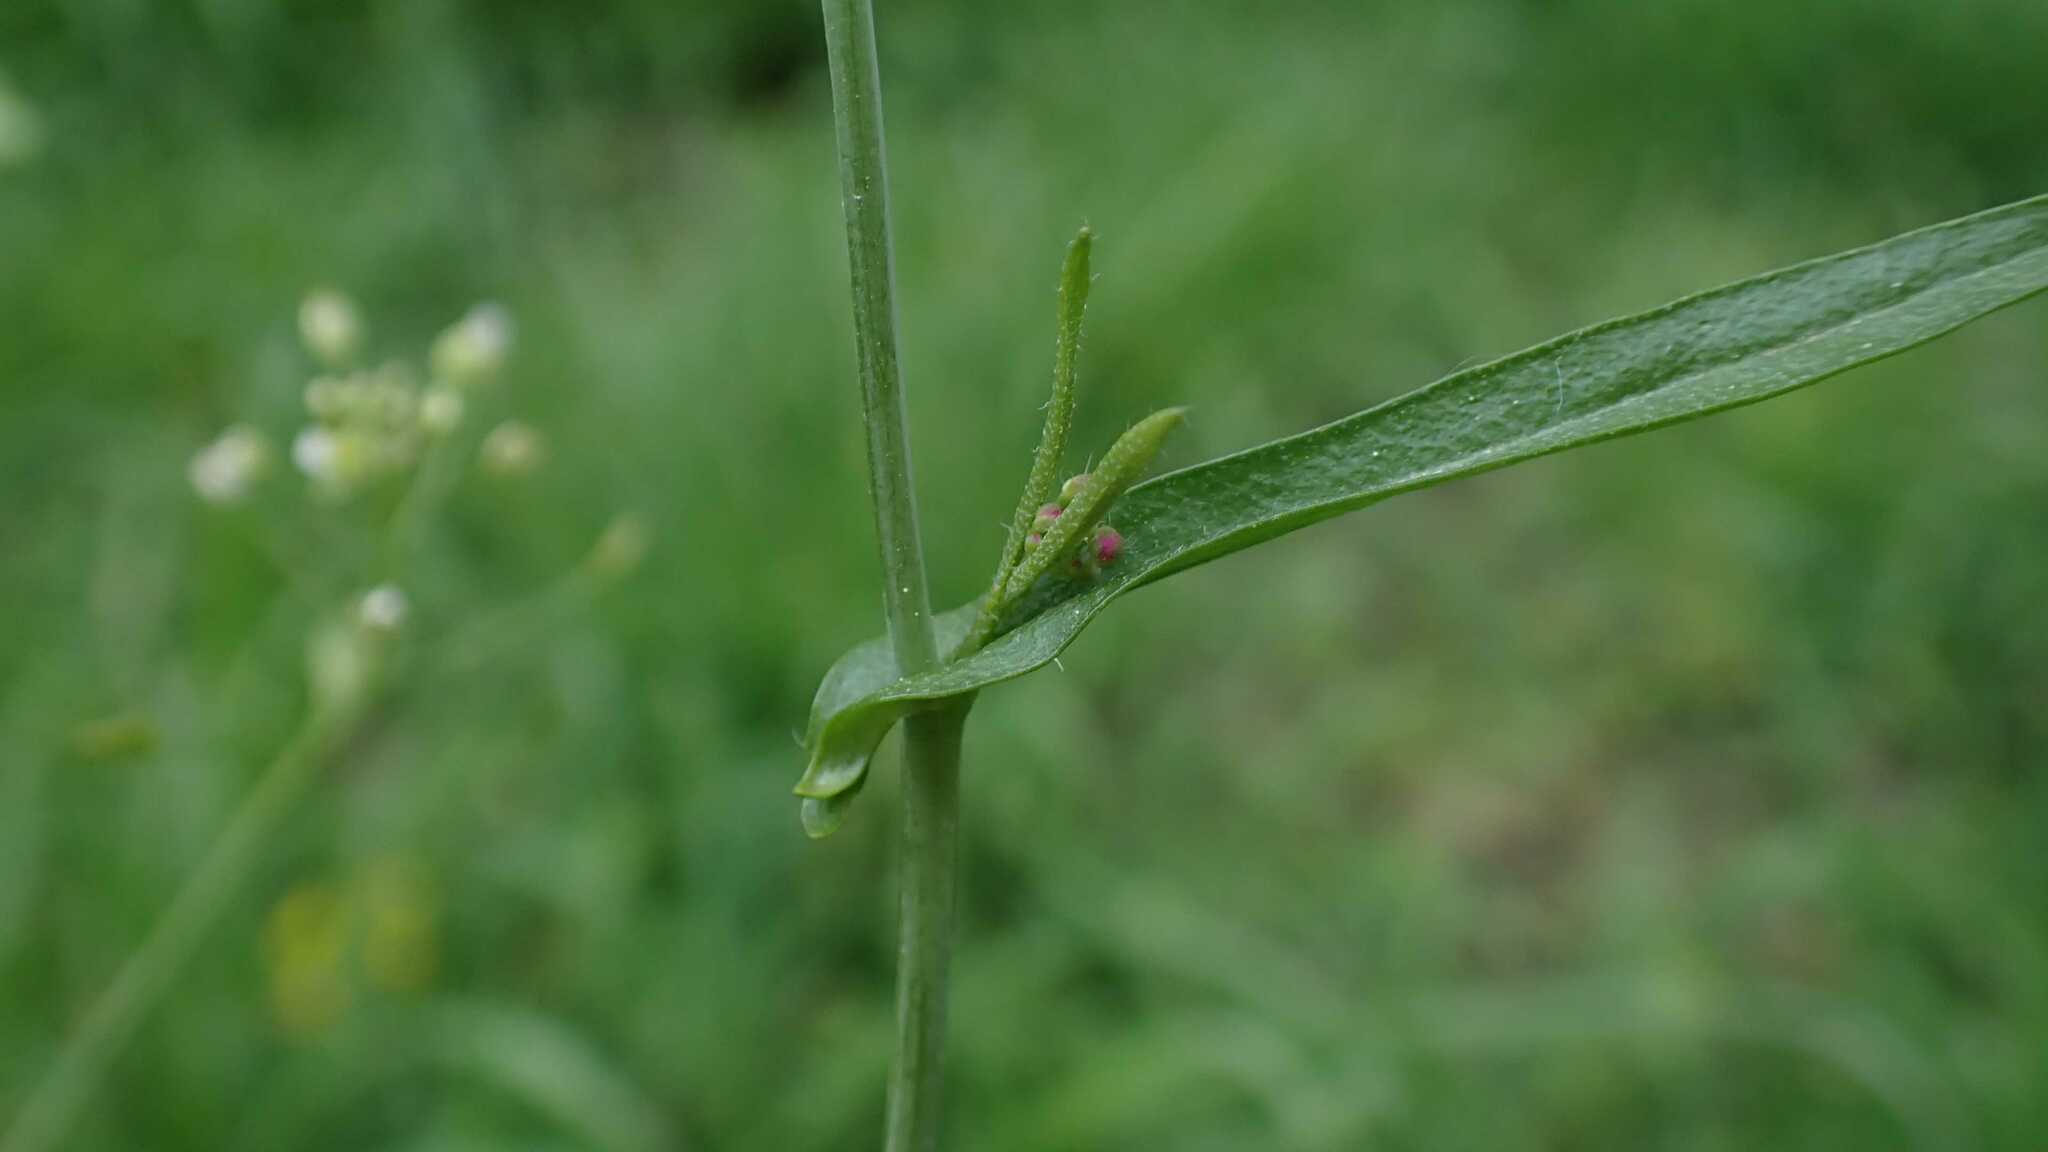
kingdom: Plantae
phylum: Tracheophyta
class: Magnoliopsida
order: Brassicales
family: Brassicaceae
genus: Capsella
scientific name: Capsella bursa-pastoris
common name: Shepherd's purse
